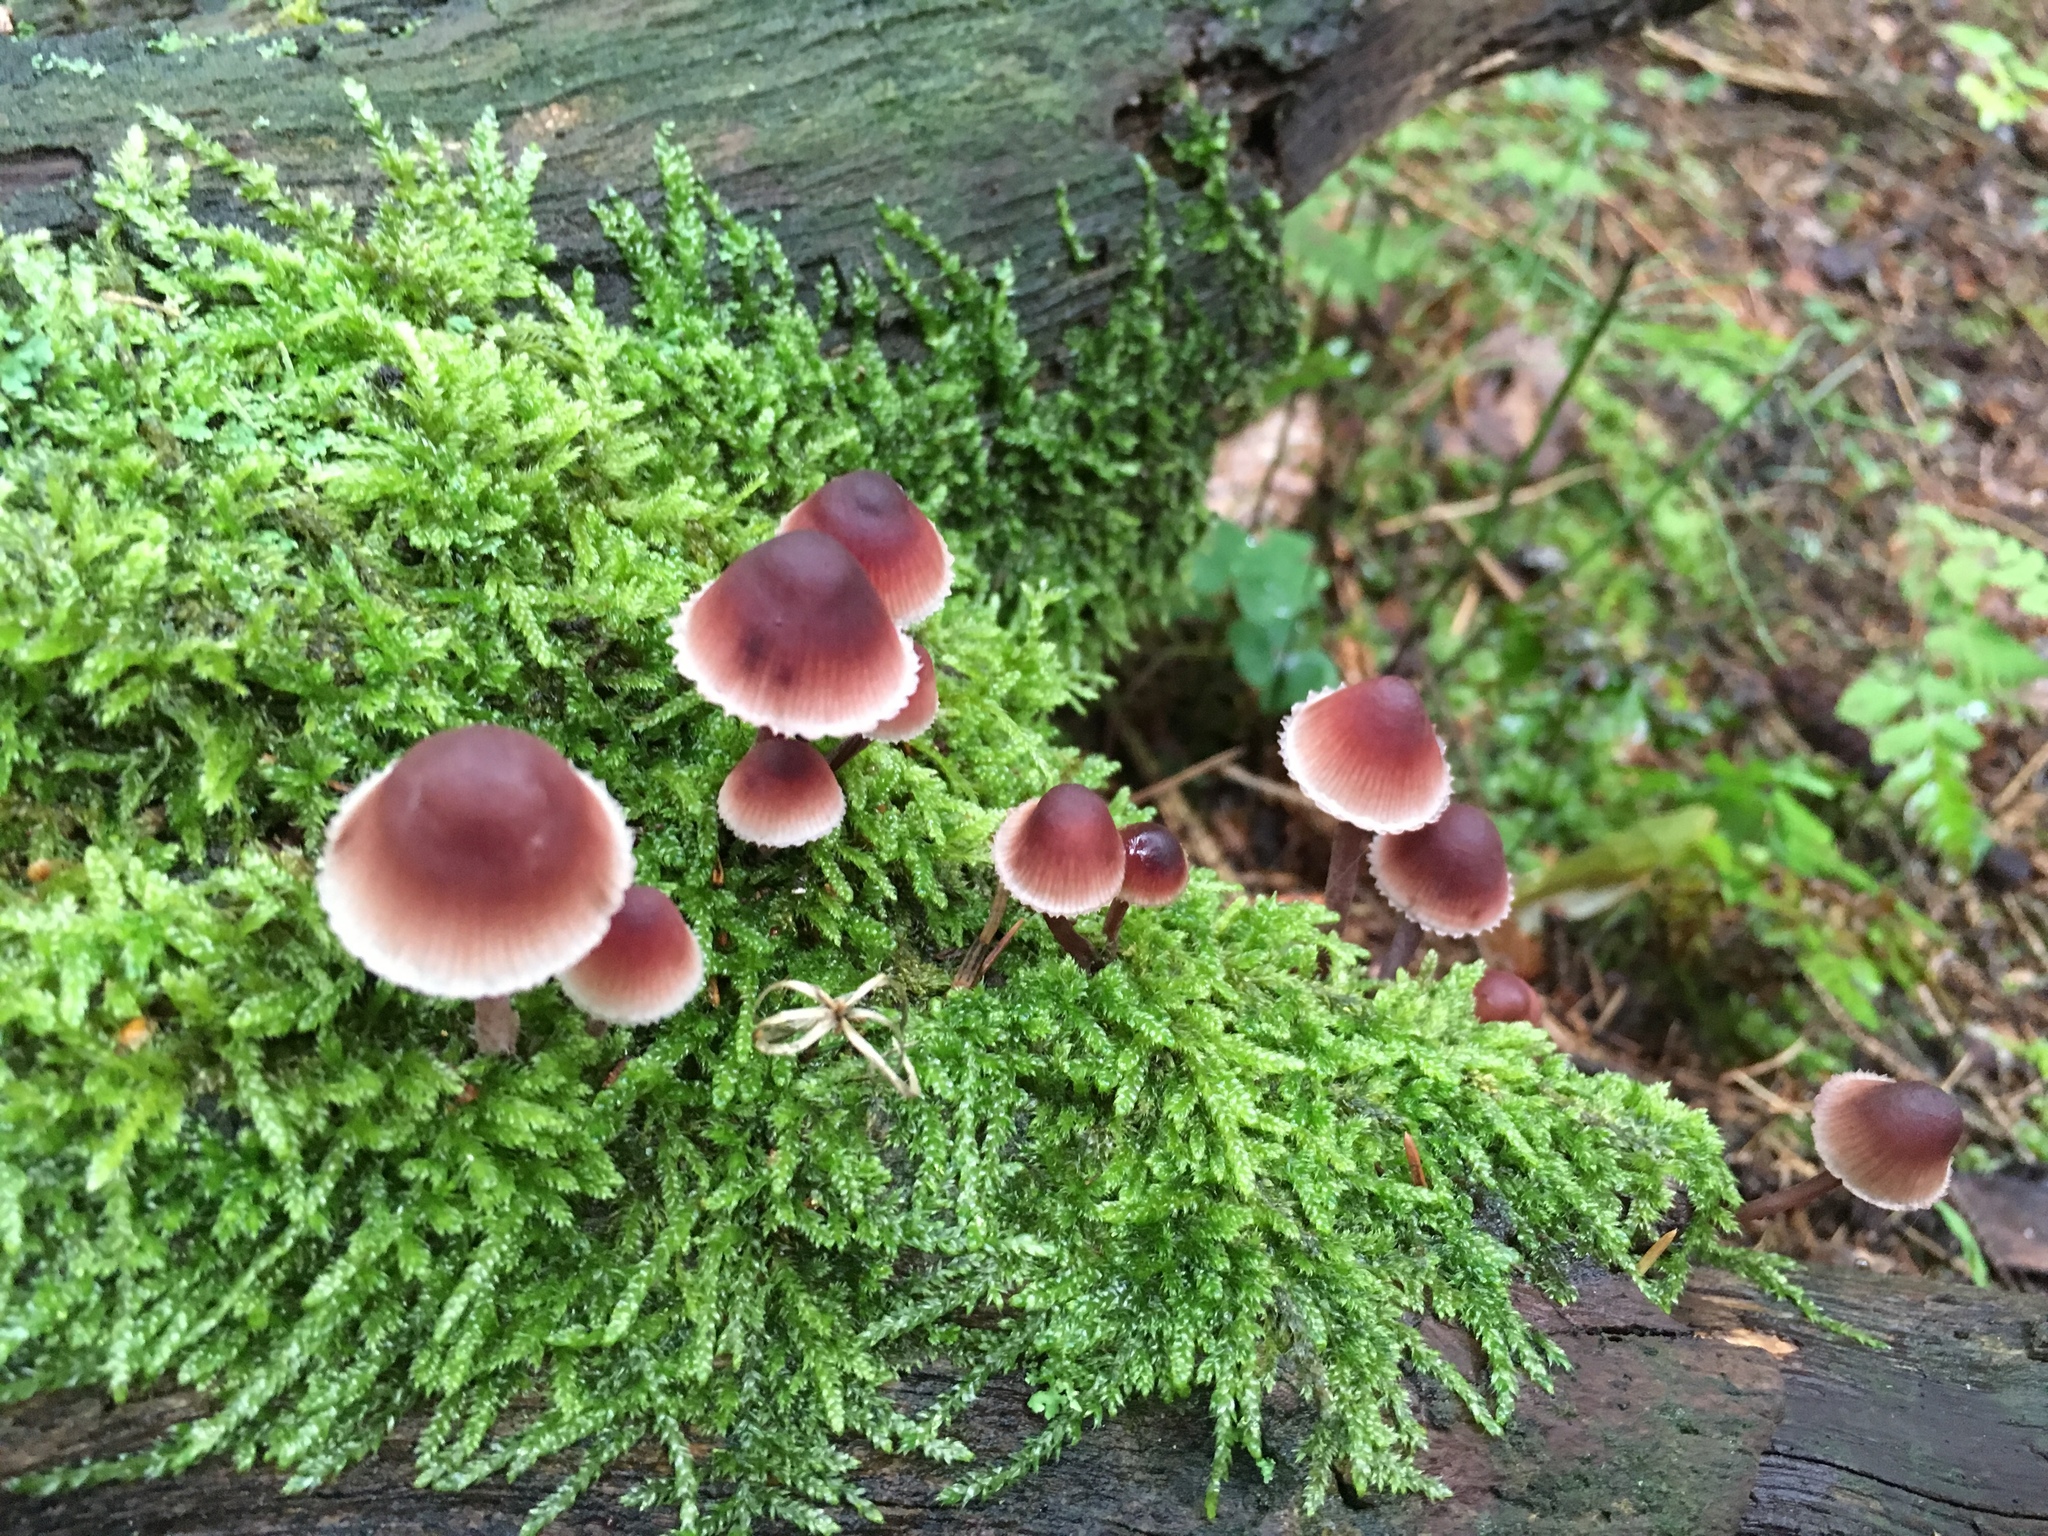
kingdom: Fungi
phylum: Basidiomycota
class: Agaricomycetes
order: Agaricales
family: Mycenaceae
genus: Mycena
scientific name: Mycena haematopus
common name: Burgundydrop bonnet
